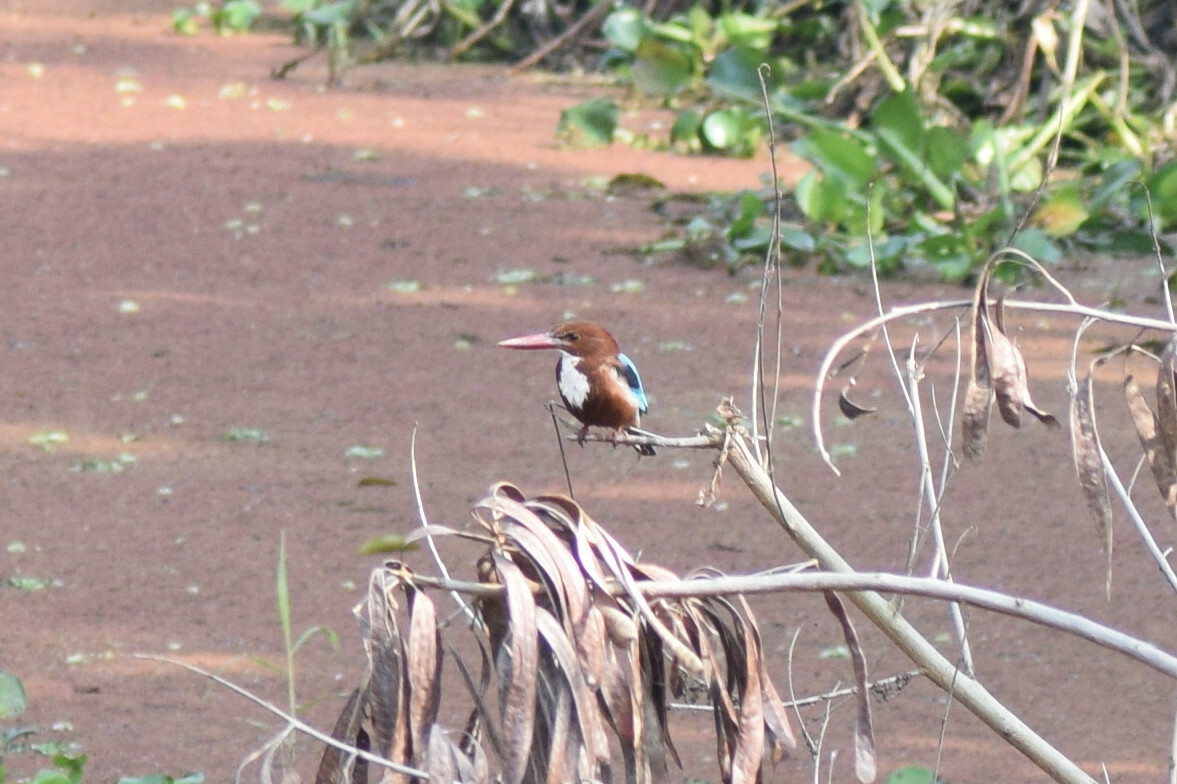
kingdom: Animalia
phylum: Chordata
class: Aves
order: Coraciiformes
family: Alcedinidae
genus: Halcyon
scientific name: Halcyon smyrnensis
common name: White-throated kingfisher
